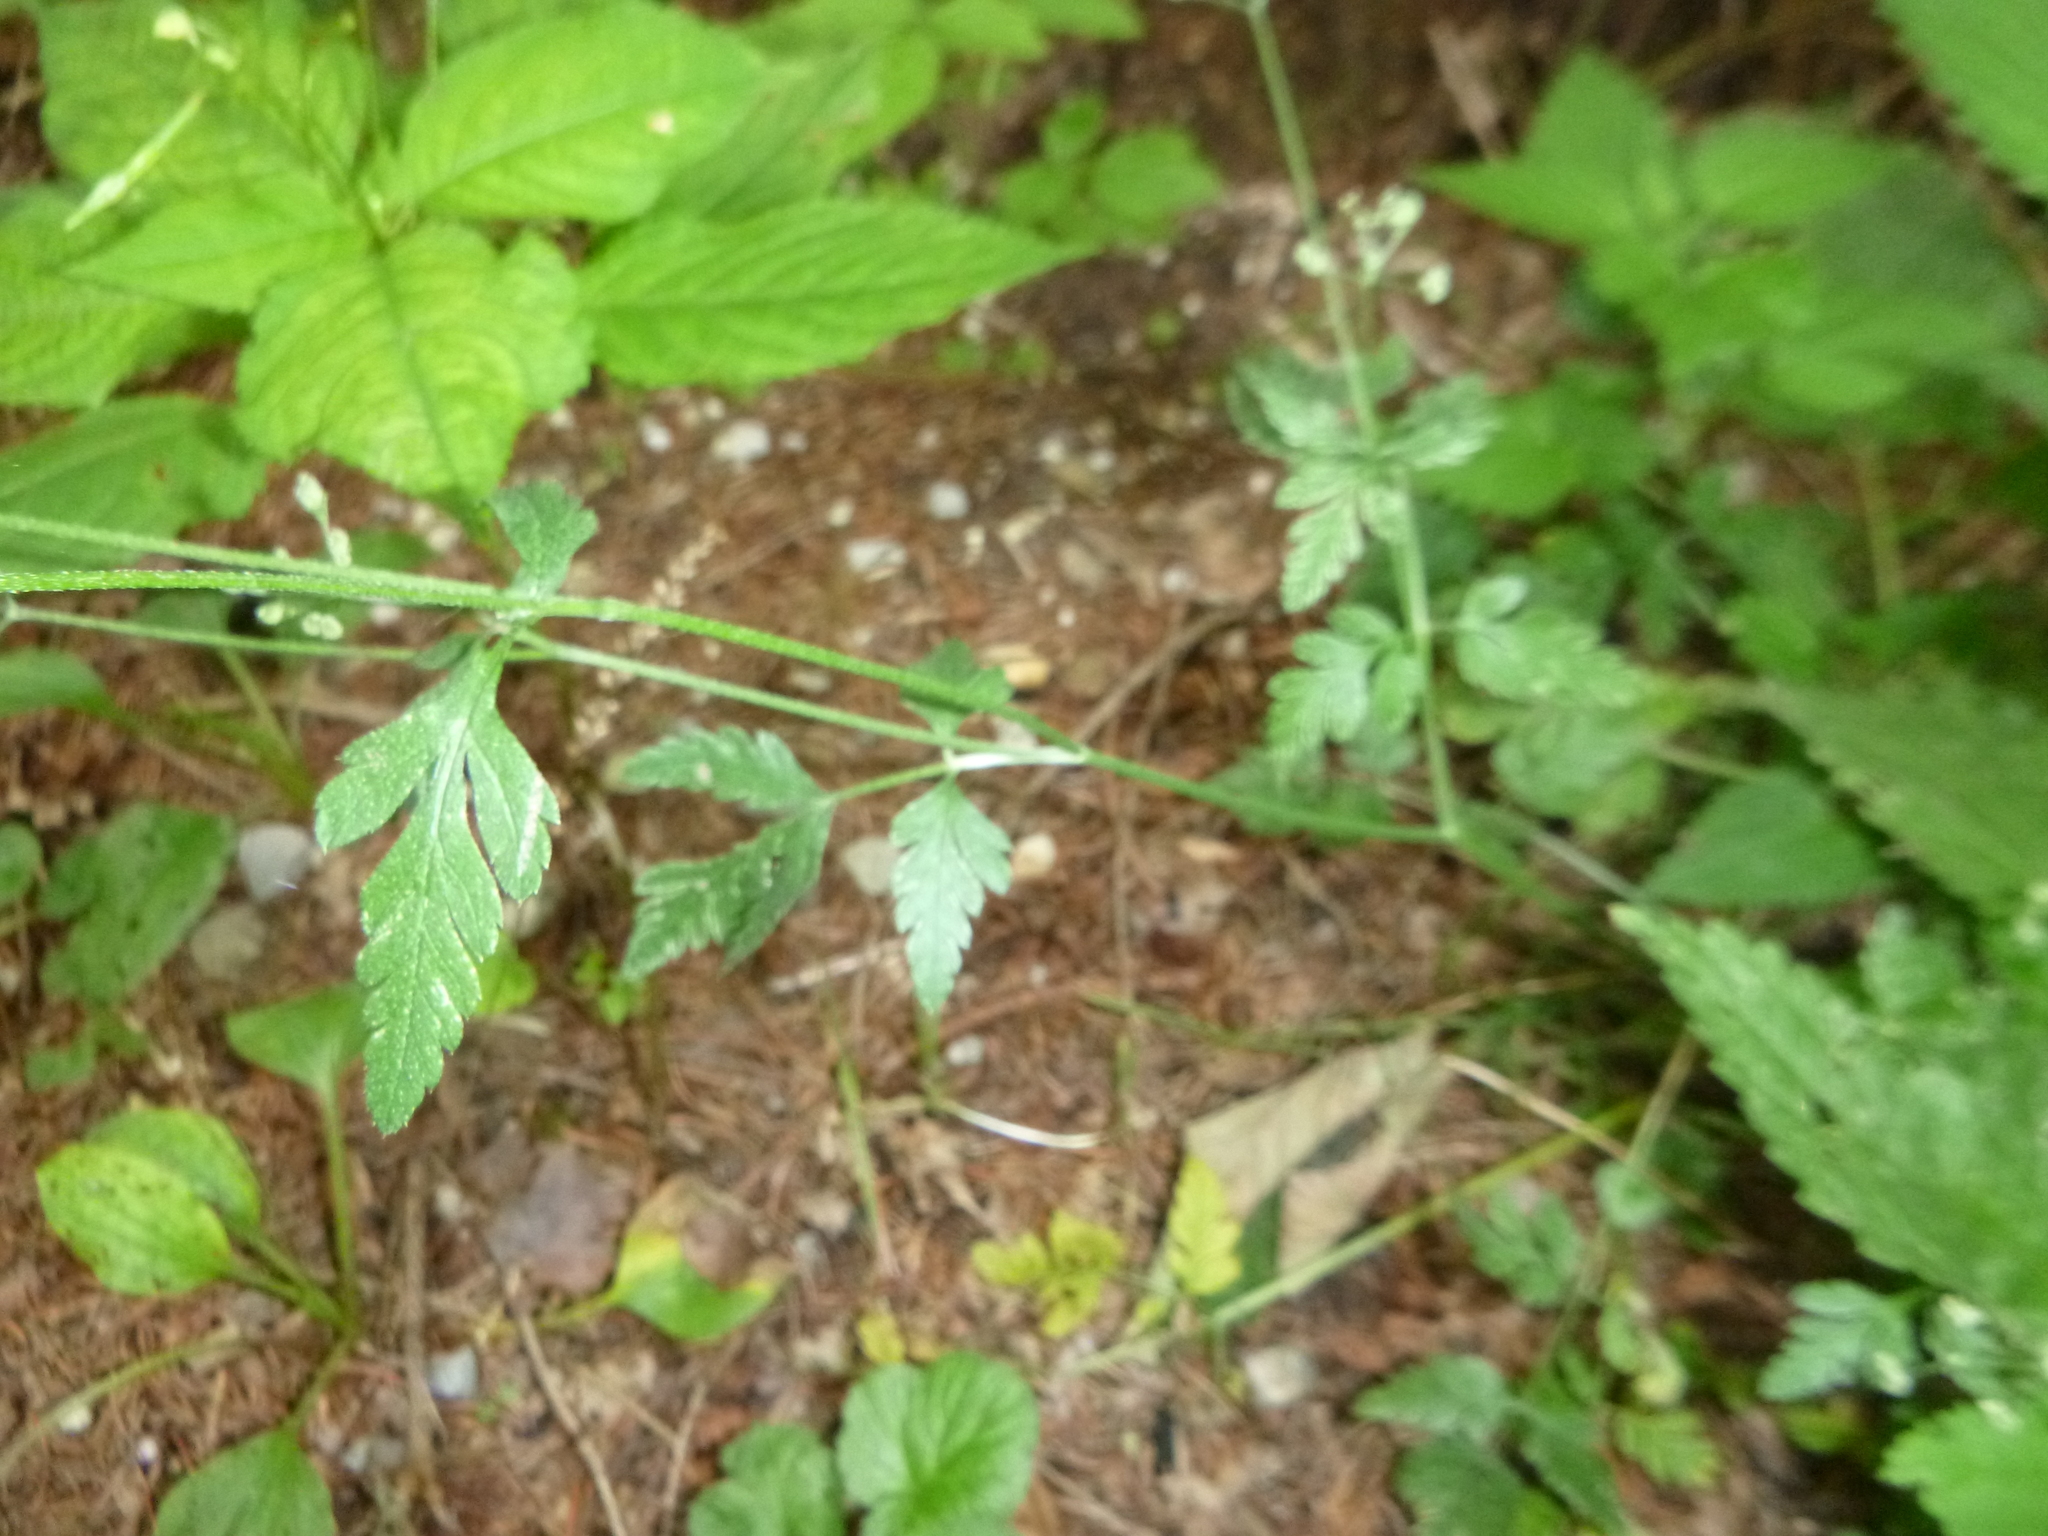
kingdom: Plantae
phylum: Tracheophyta
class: Magnoliopsida
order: Apiales
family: Apiaceae
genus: Torilis
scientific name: Torilis japonica
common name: Upright hedge-parsley
